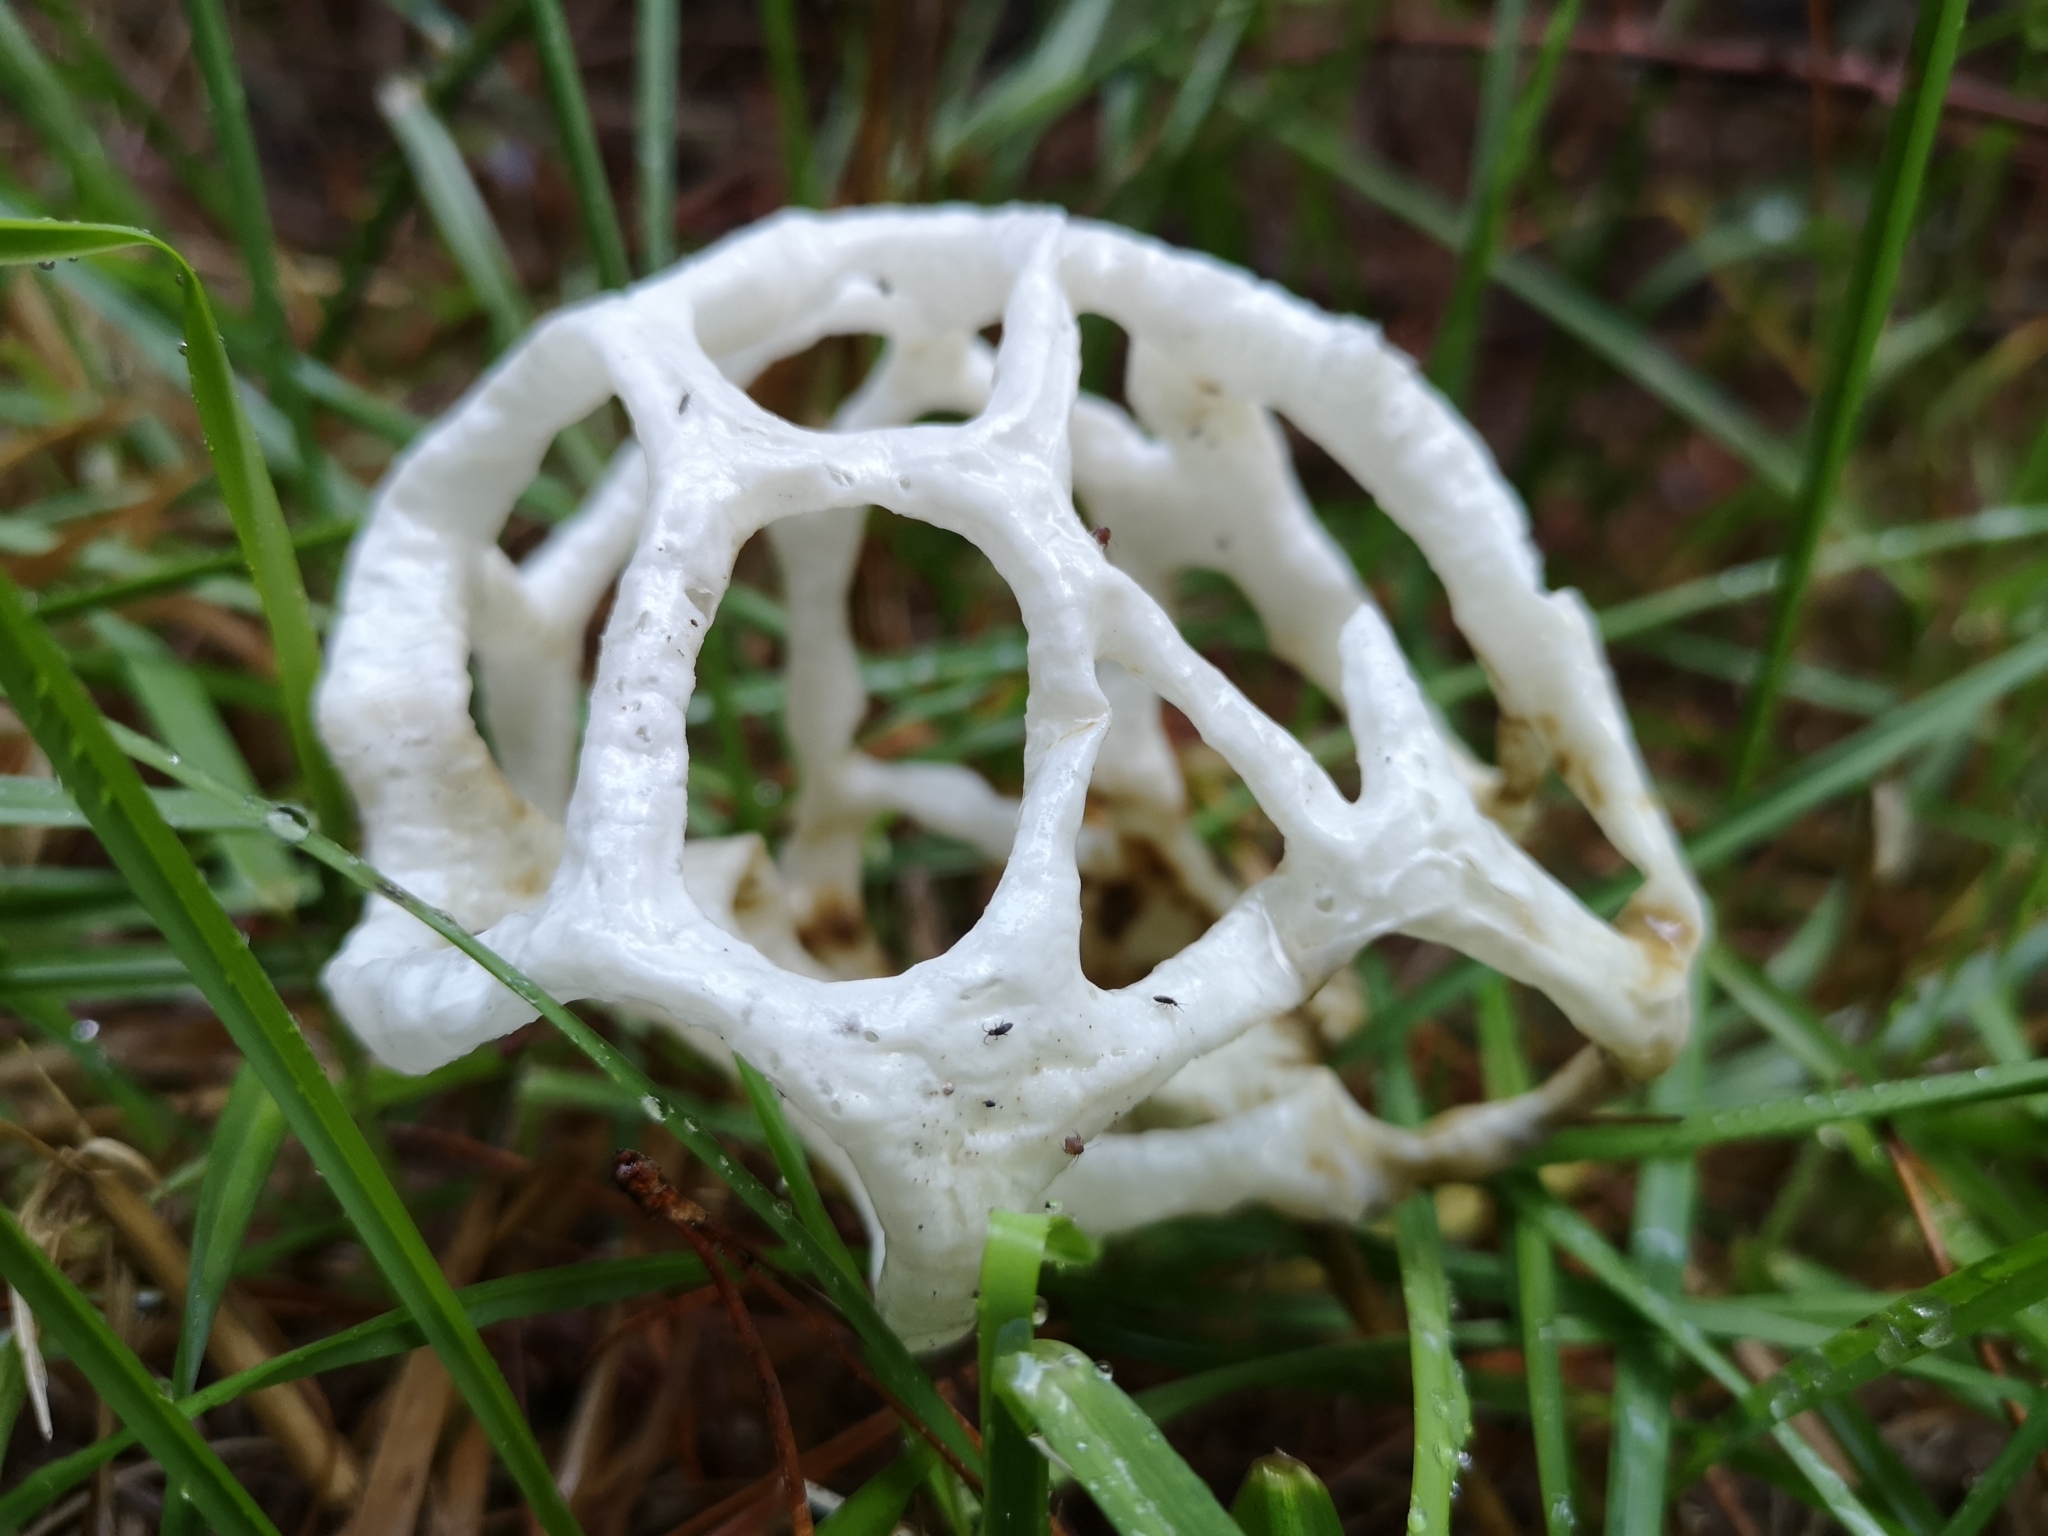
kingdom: Fungi
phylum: Basidiomycota
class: Agaricomycetes
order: Phallales
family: Phallaceae
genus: Ileodictyon
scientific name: Ileodictyon cibarium
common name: Basket fungus
